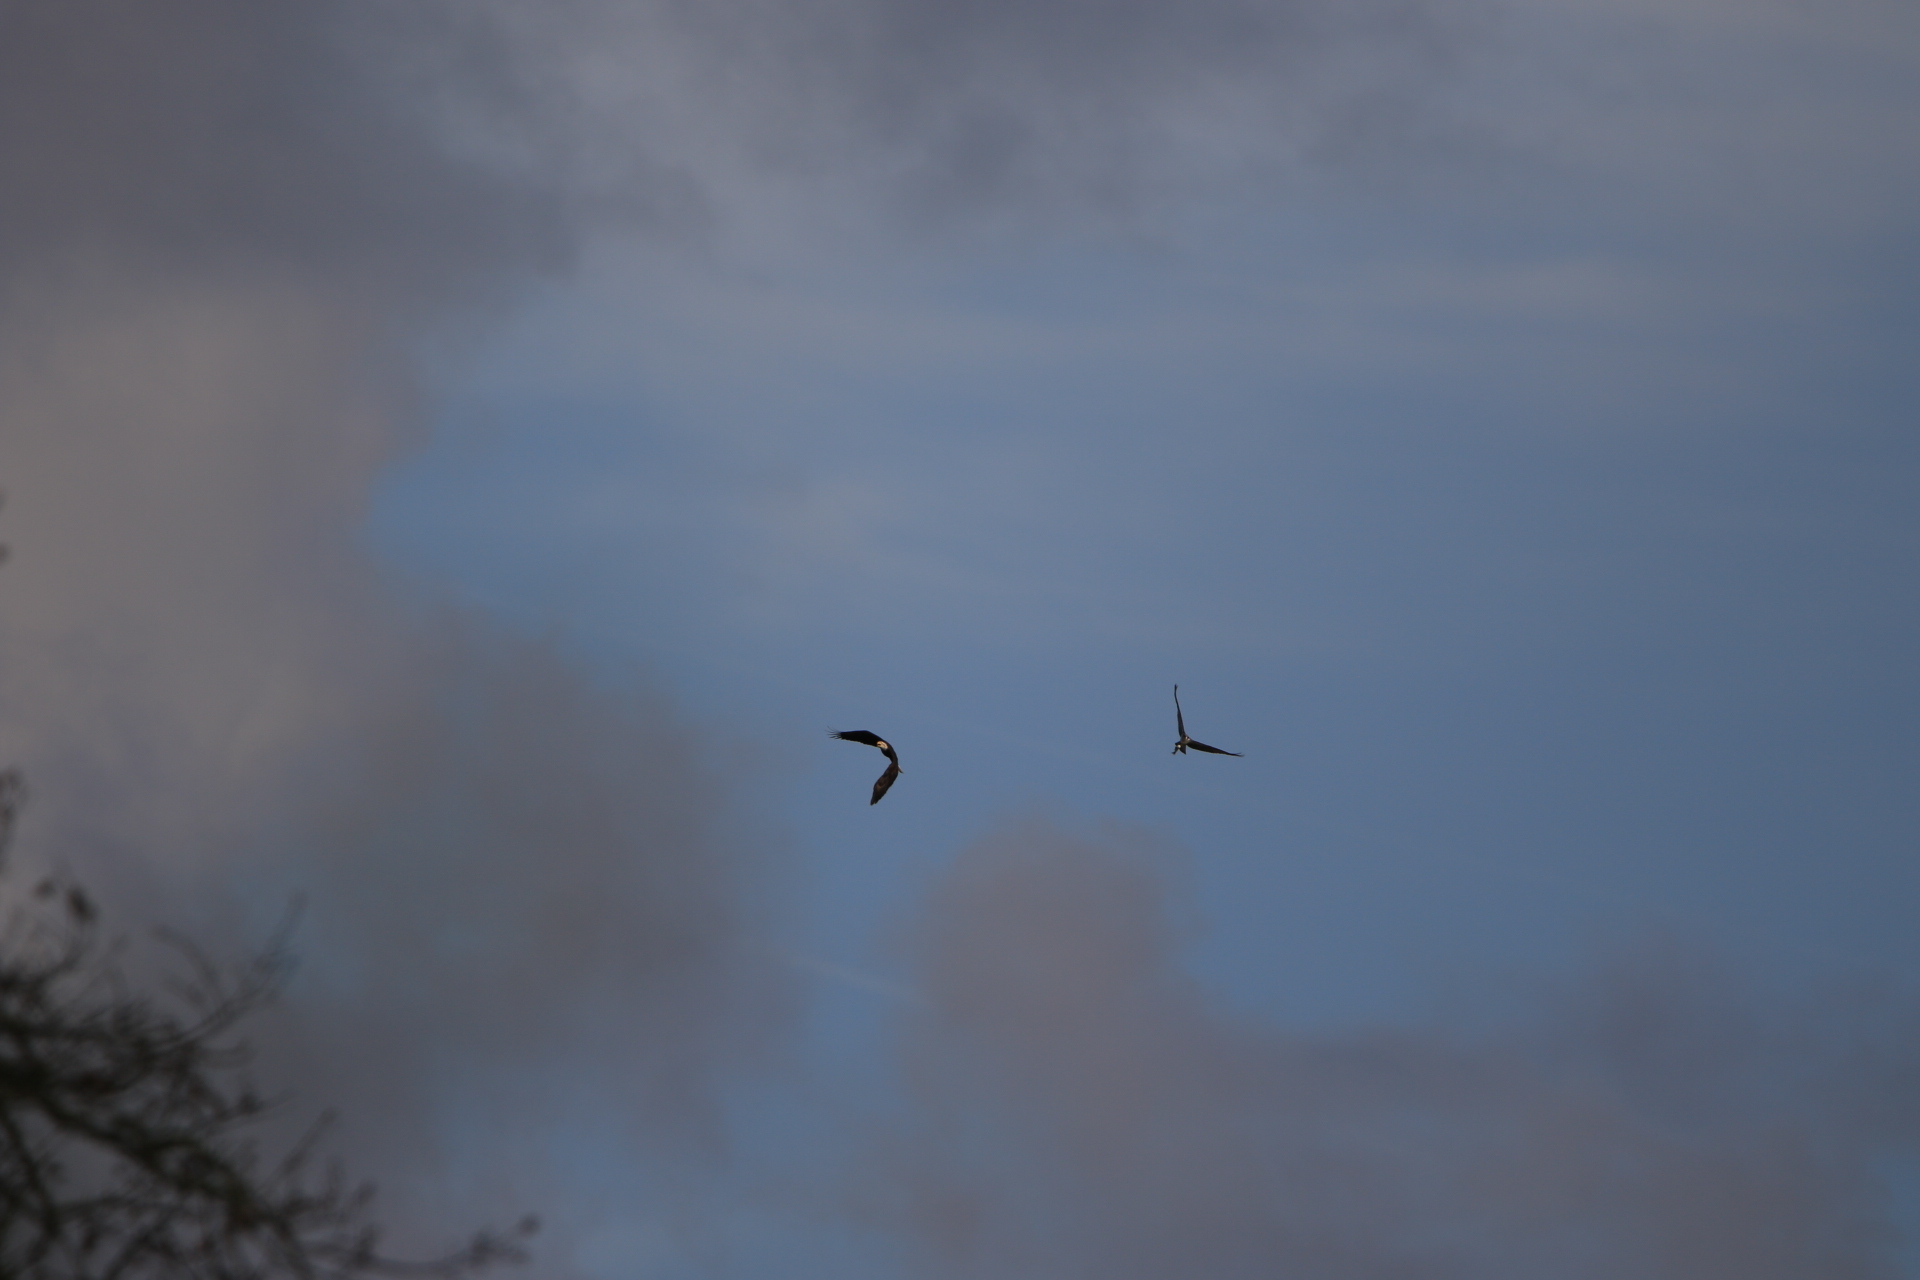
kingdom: Animalia
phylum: Chordata
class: Aves
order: Accipitriformes
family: Pandionidae
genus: Pandion
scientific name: Pandion haliaetus
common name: Osprey
